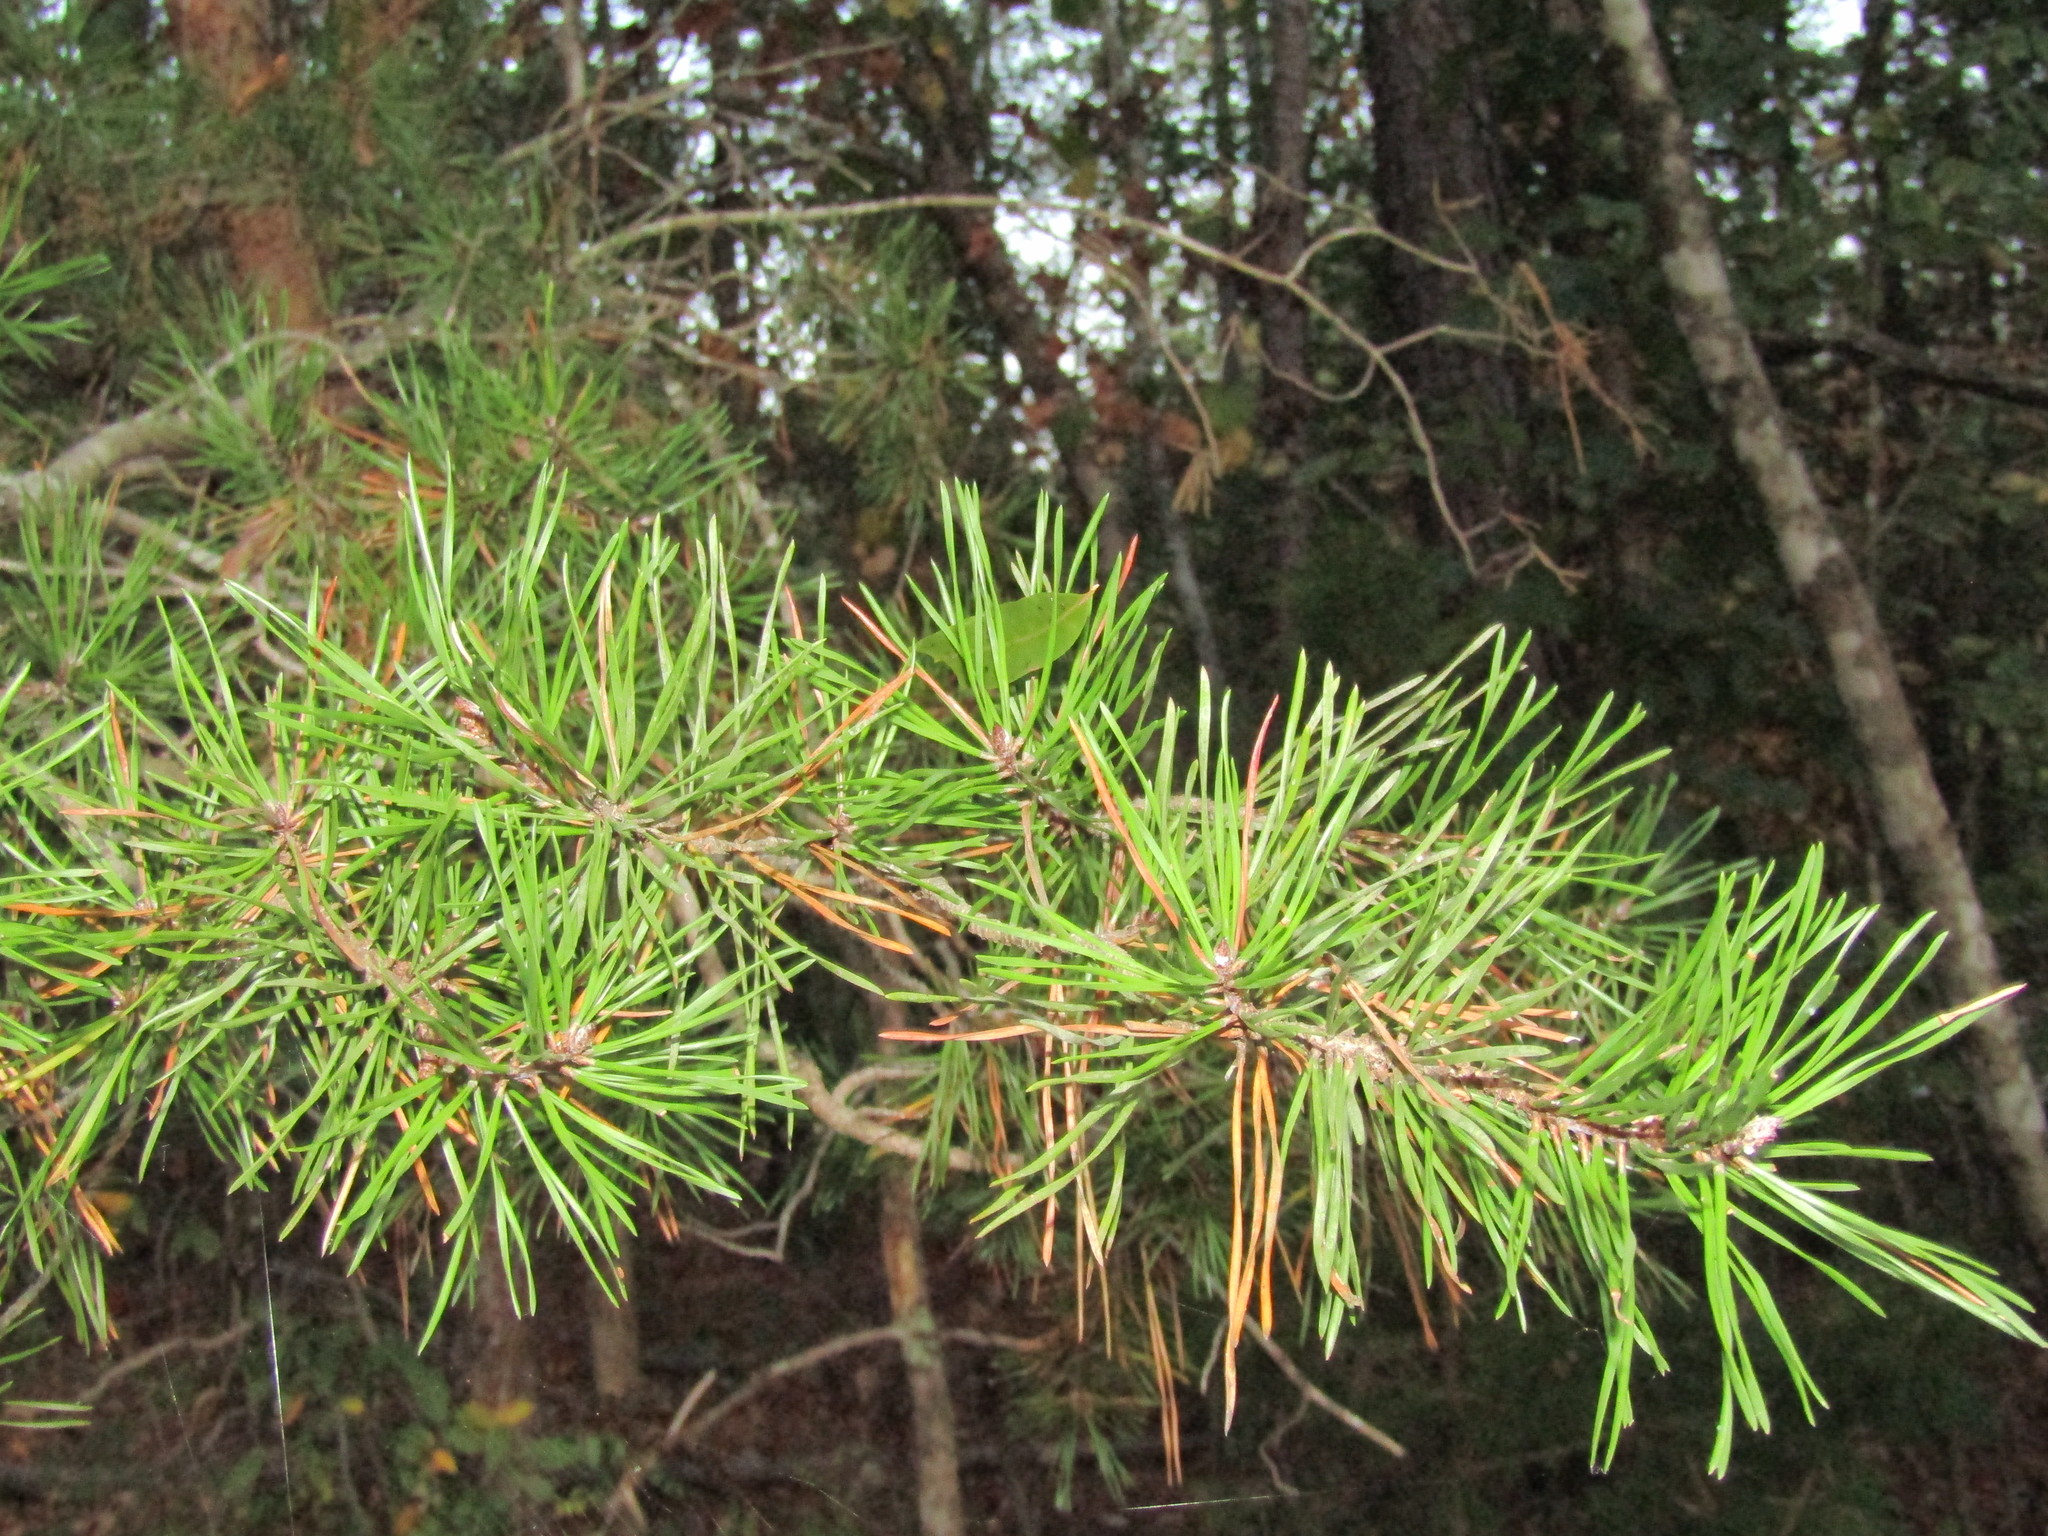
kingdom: Plantae
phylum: Tracheophyta
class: Pinopsida
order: Pinales
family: Pinaceae
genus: Pinus
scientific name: Pinus virginiana
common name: Scrub pine
